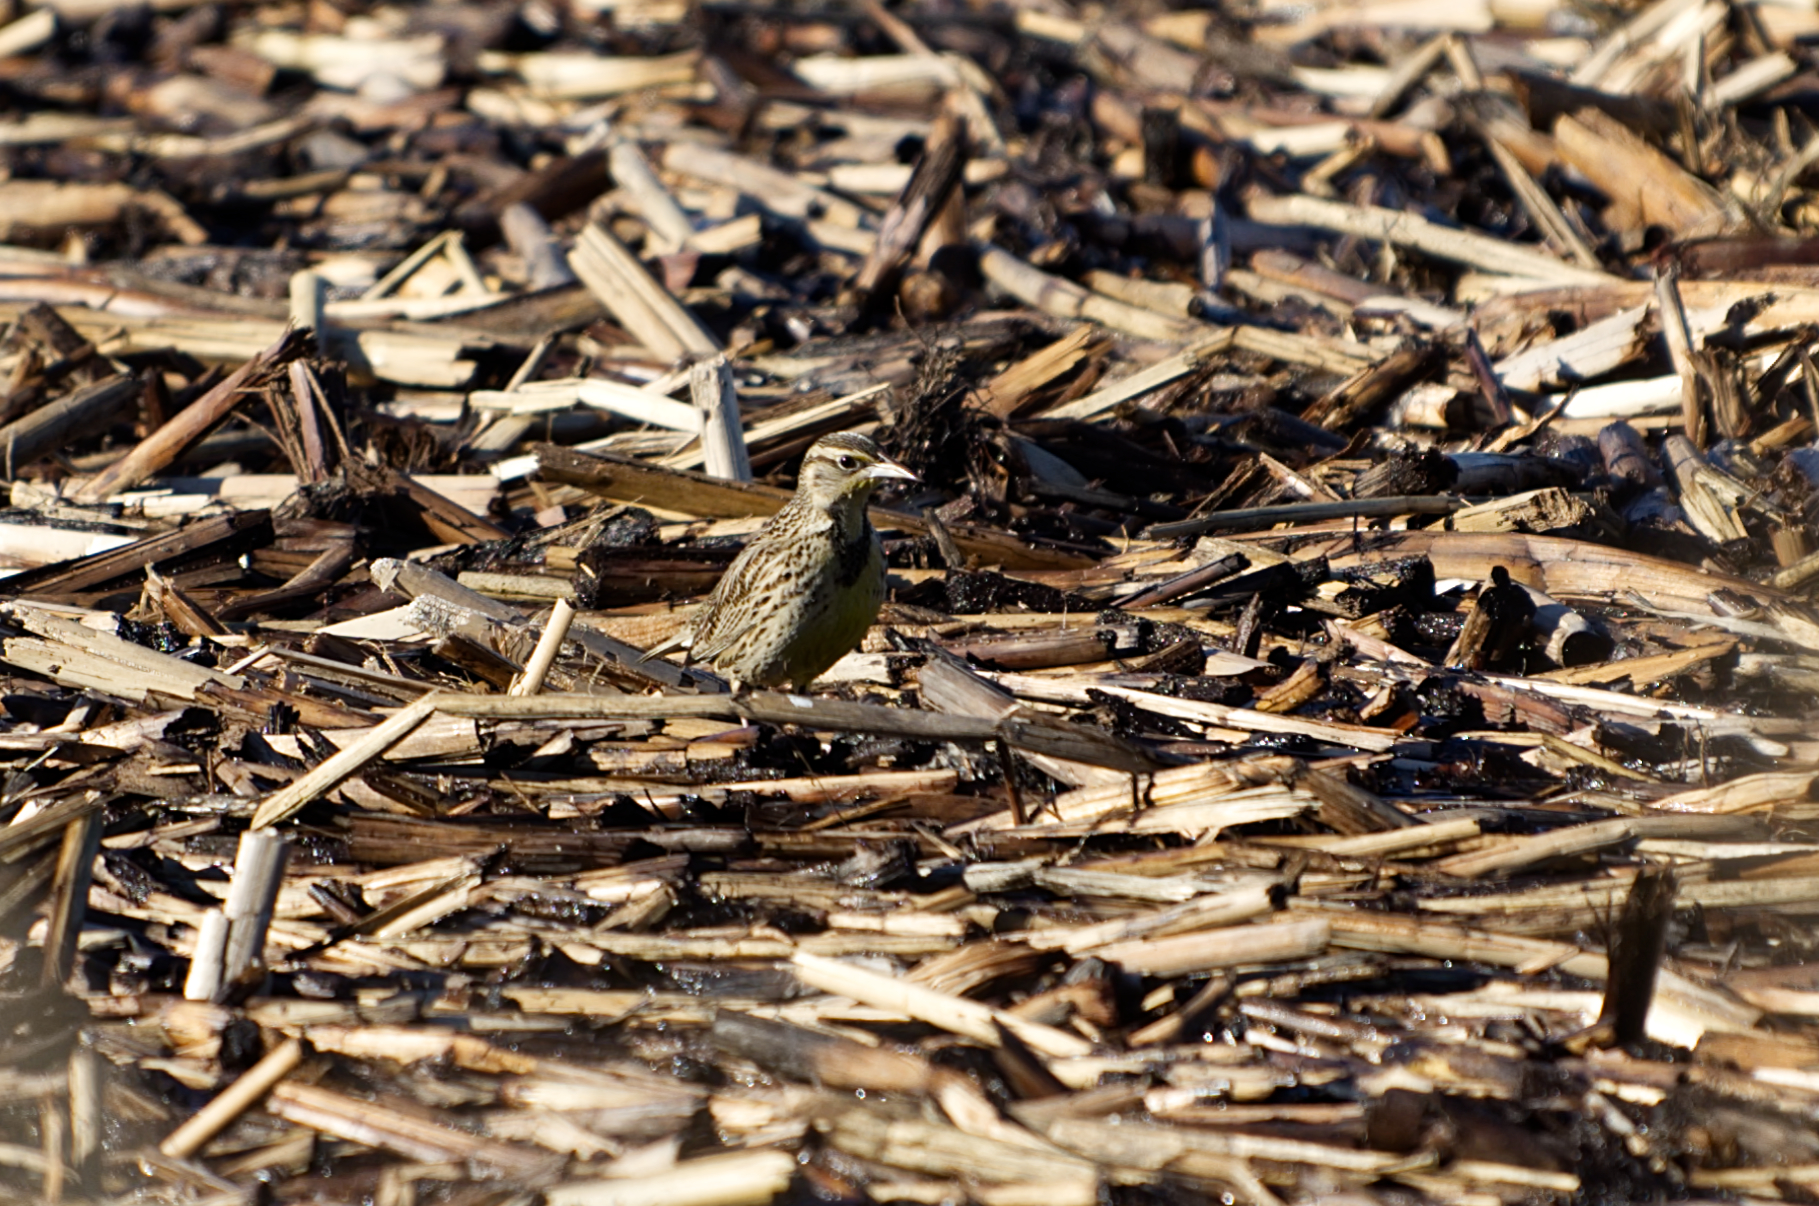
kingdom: Animalia
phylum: Chordata
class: Aves
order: Passeriformes
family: Icteridae
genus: Sturnella
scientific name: Sturnella neglecta
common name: Western meadowlark
